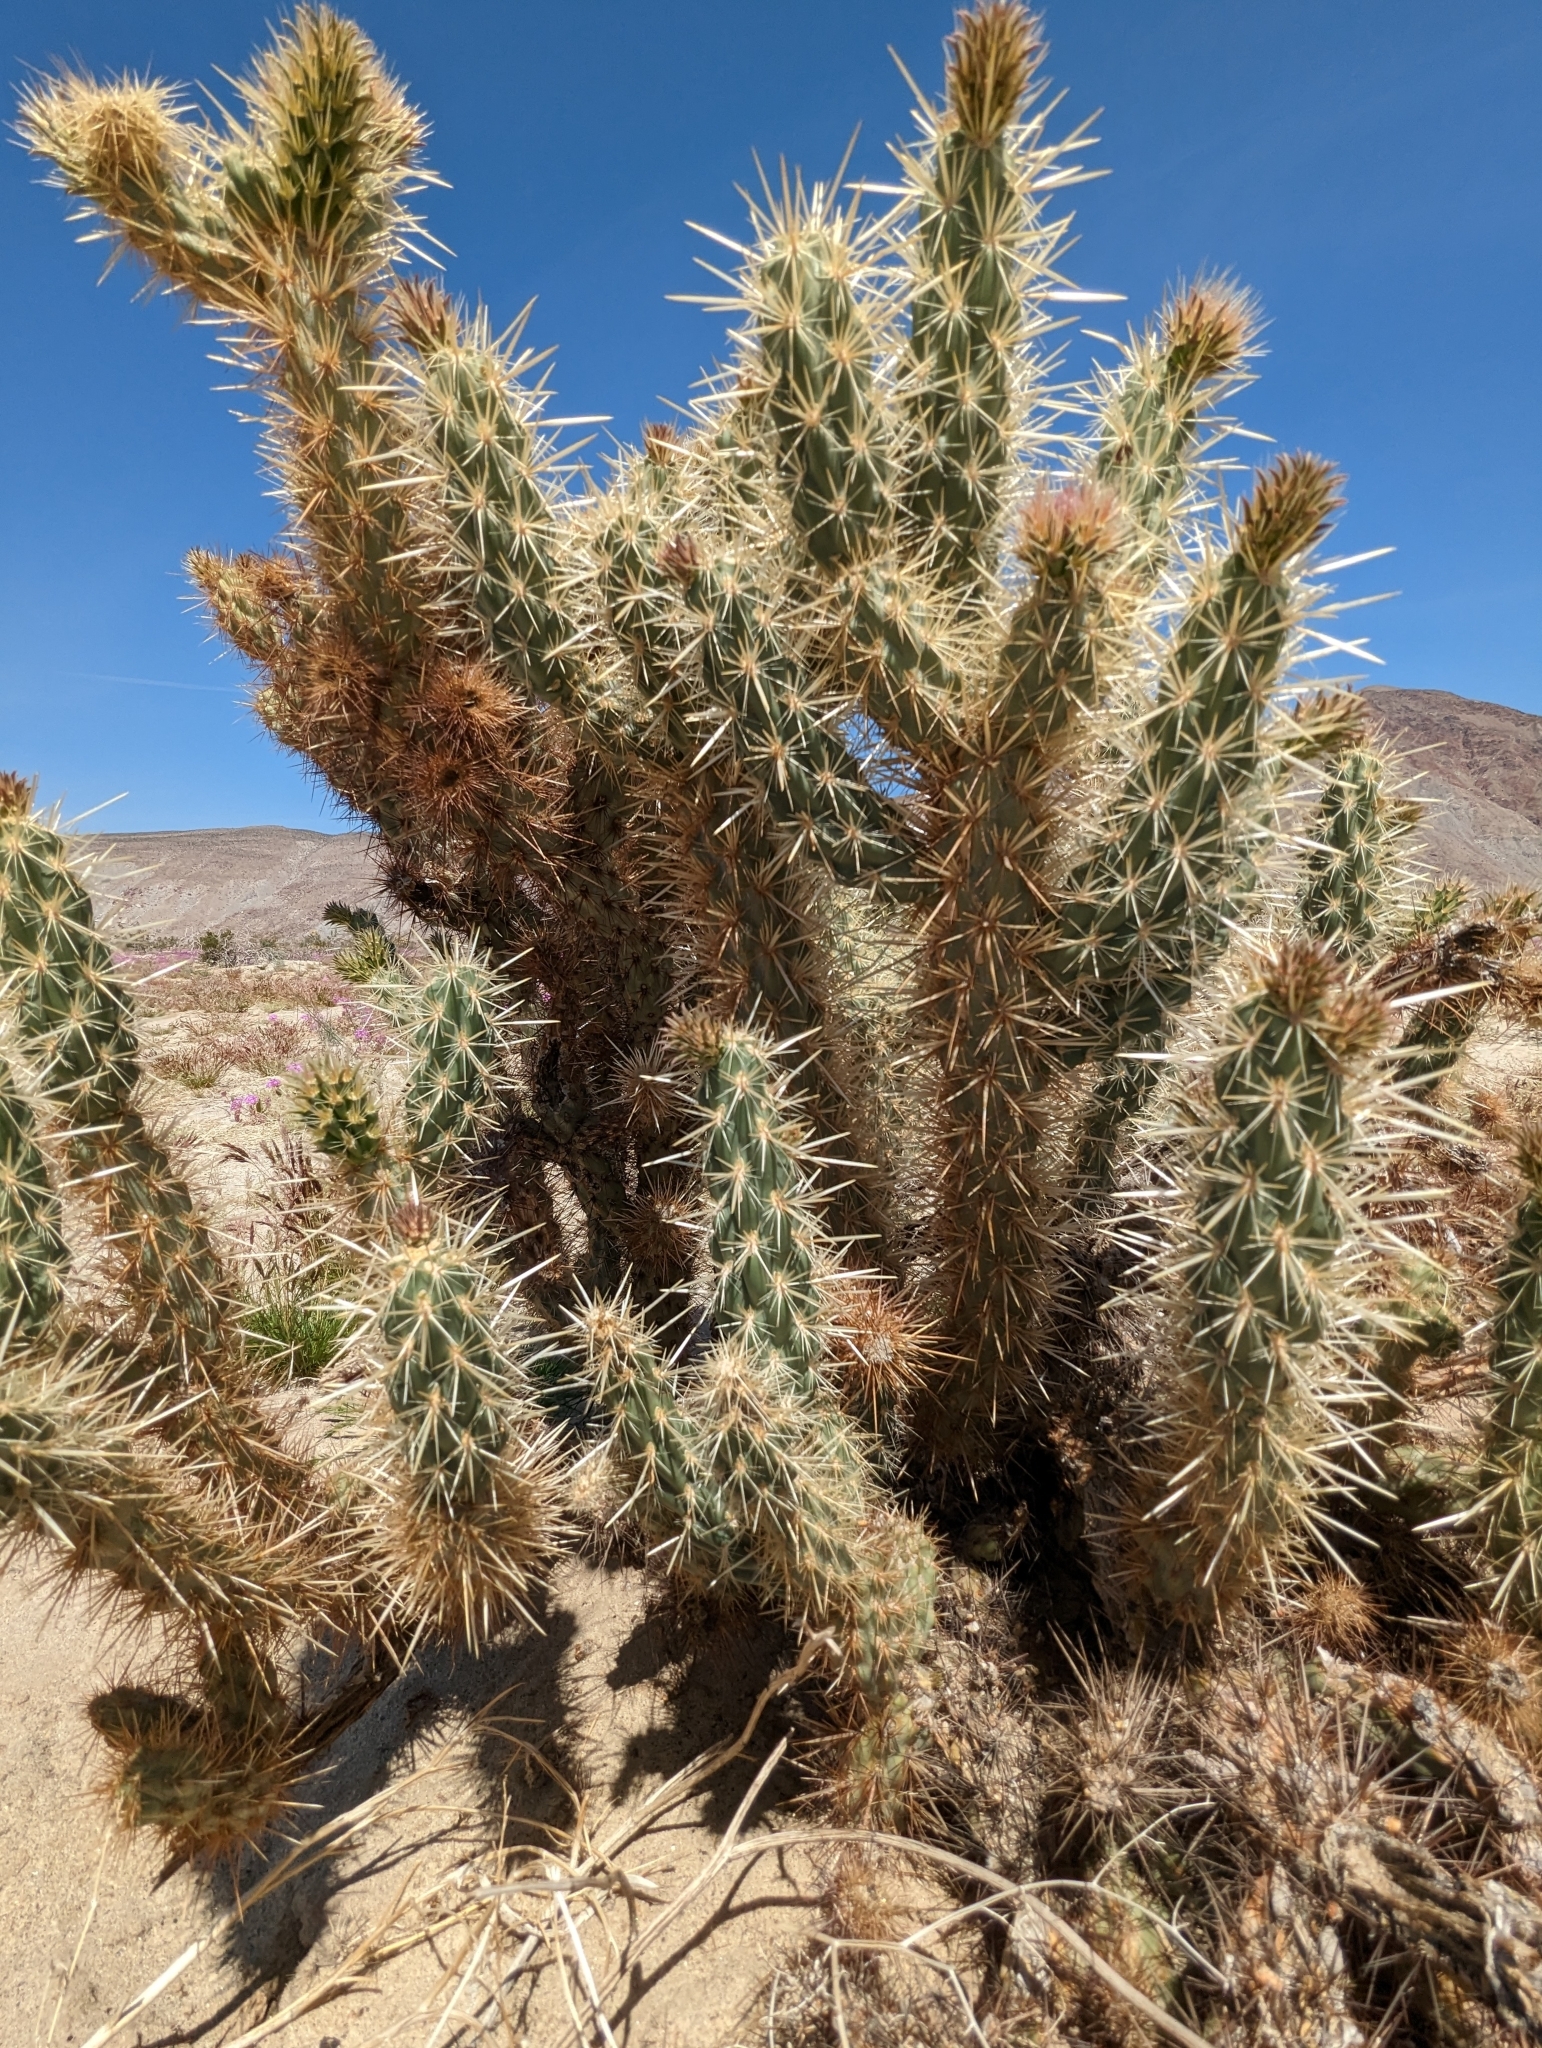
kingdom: Plantae
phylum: Tracheophyta
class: Magnoliopsida
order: Caryophyllales
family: Cactaceae
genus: Cylindropuntia
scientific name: Cylindropuntia ganderi
